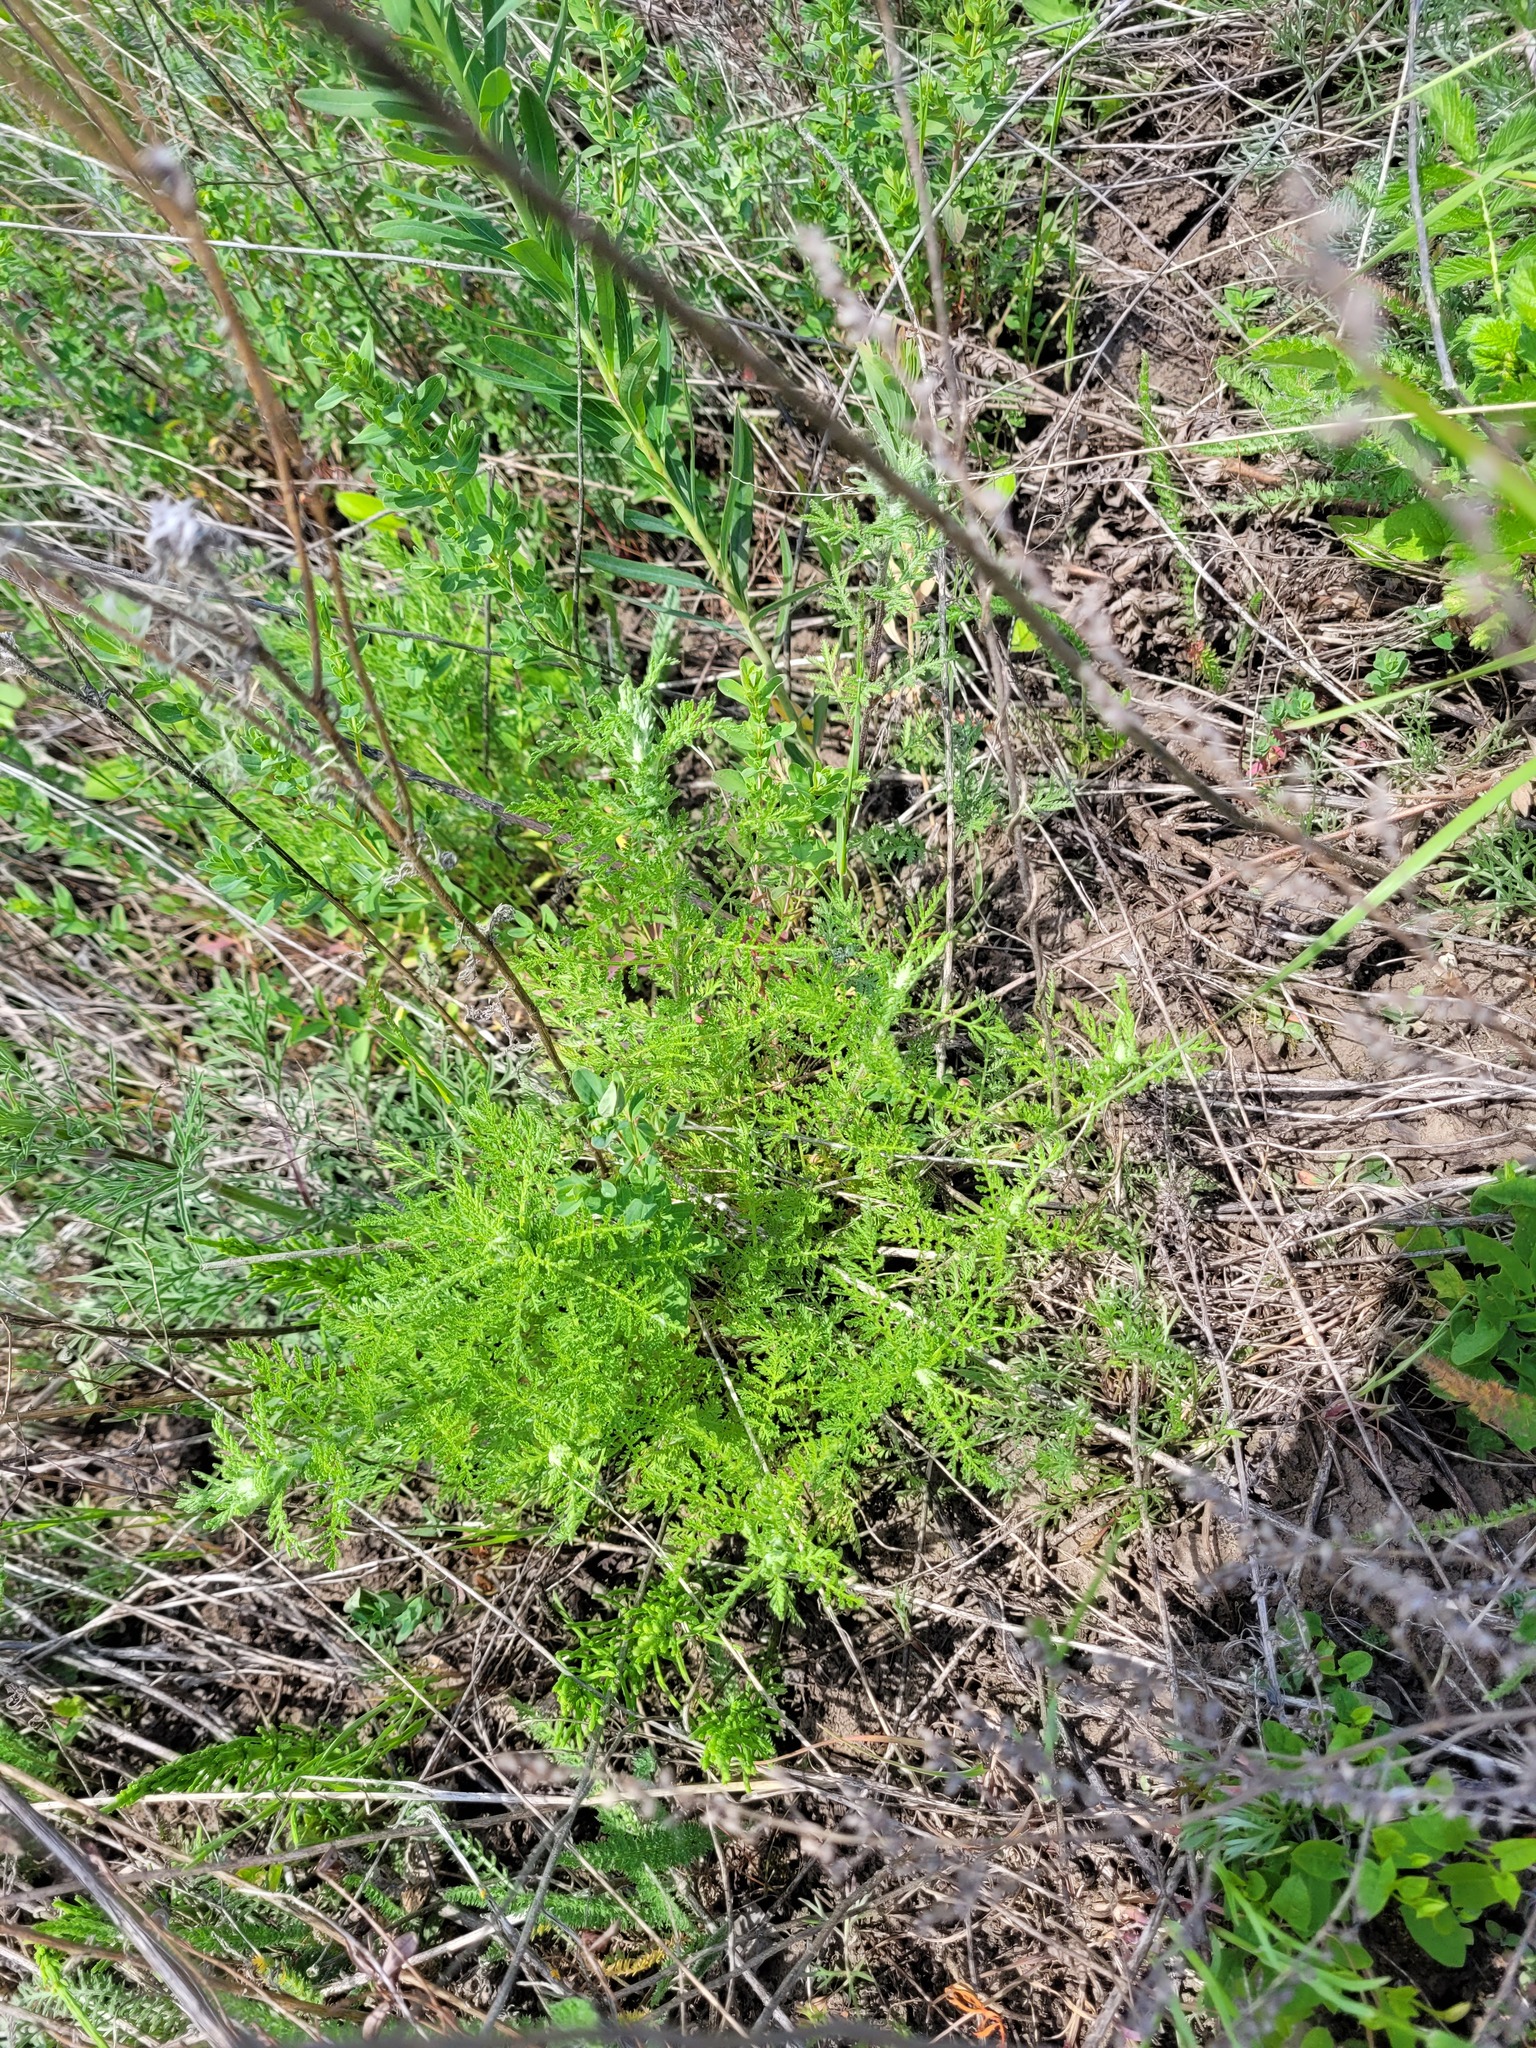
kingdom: Plantae
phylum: Tracheophyta
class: Magnoliopsida
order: Asterales
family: Asteraceae
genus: Achillea
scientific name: Achillea nobilis
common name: Noble yarrow
